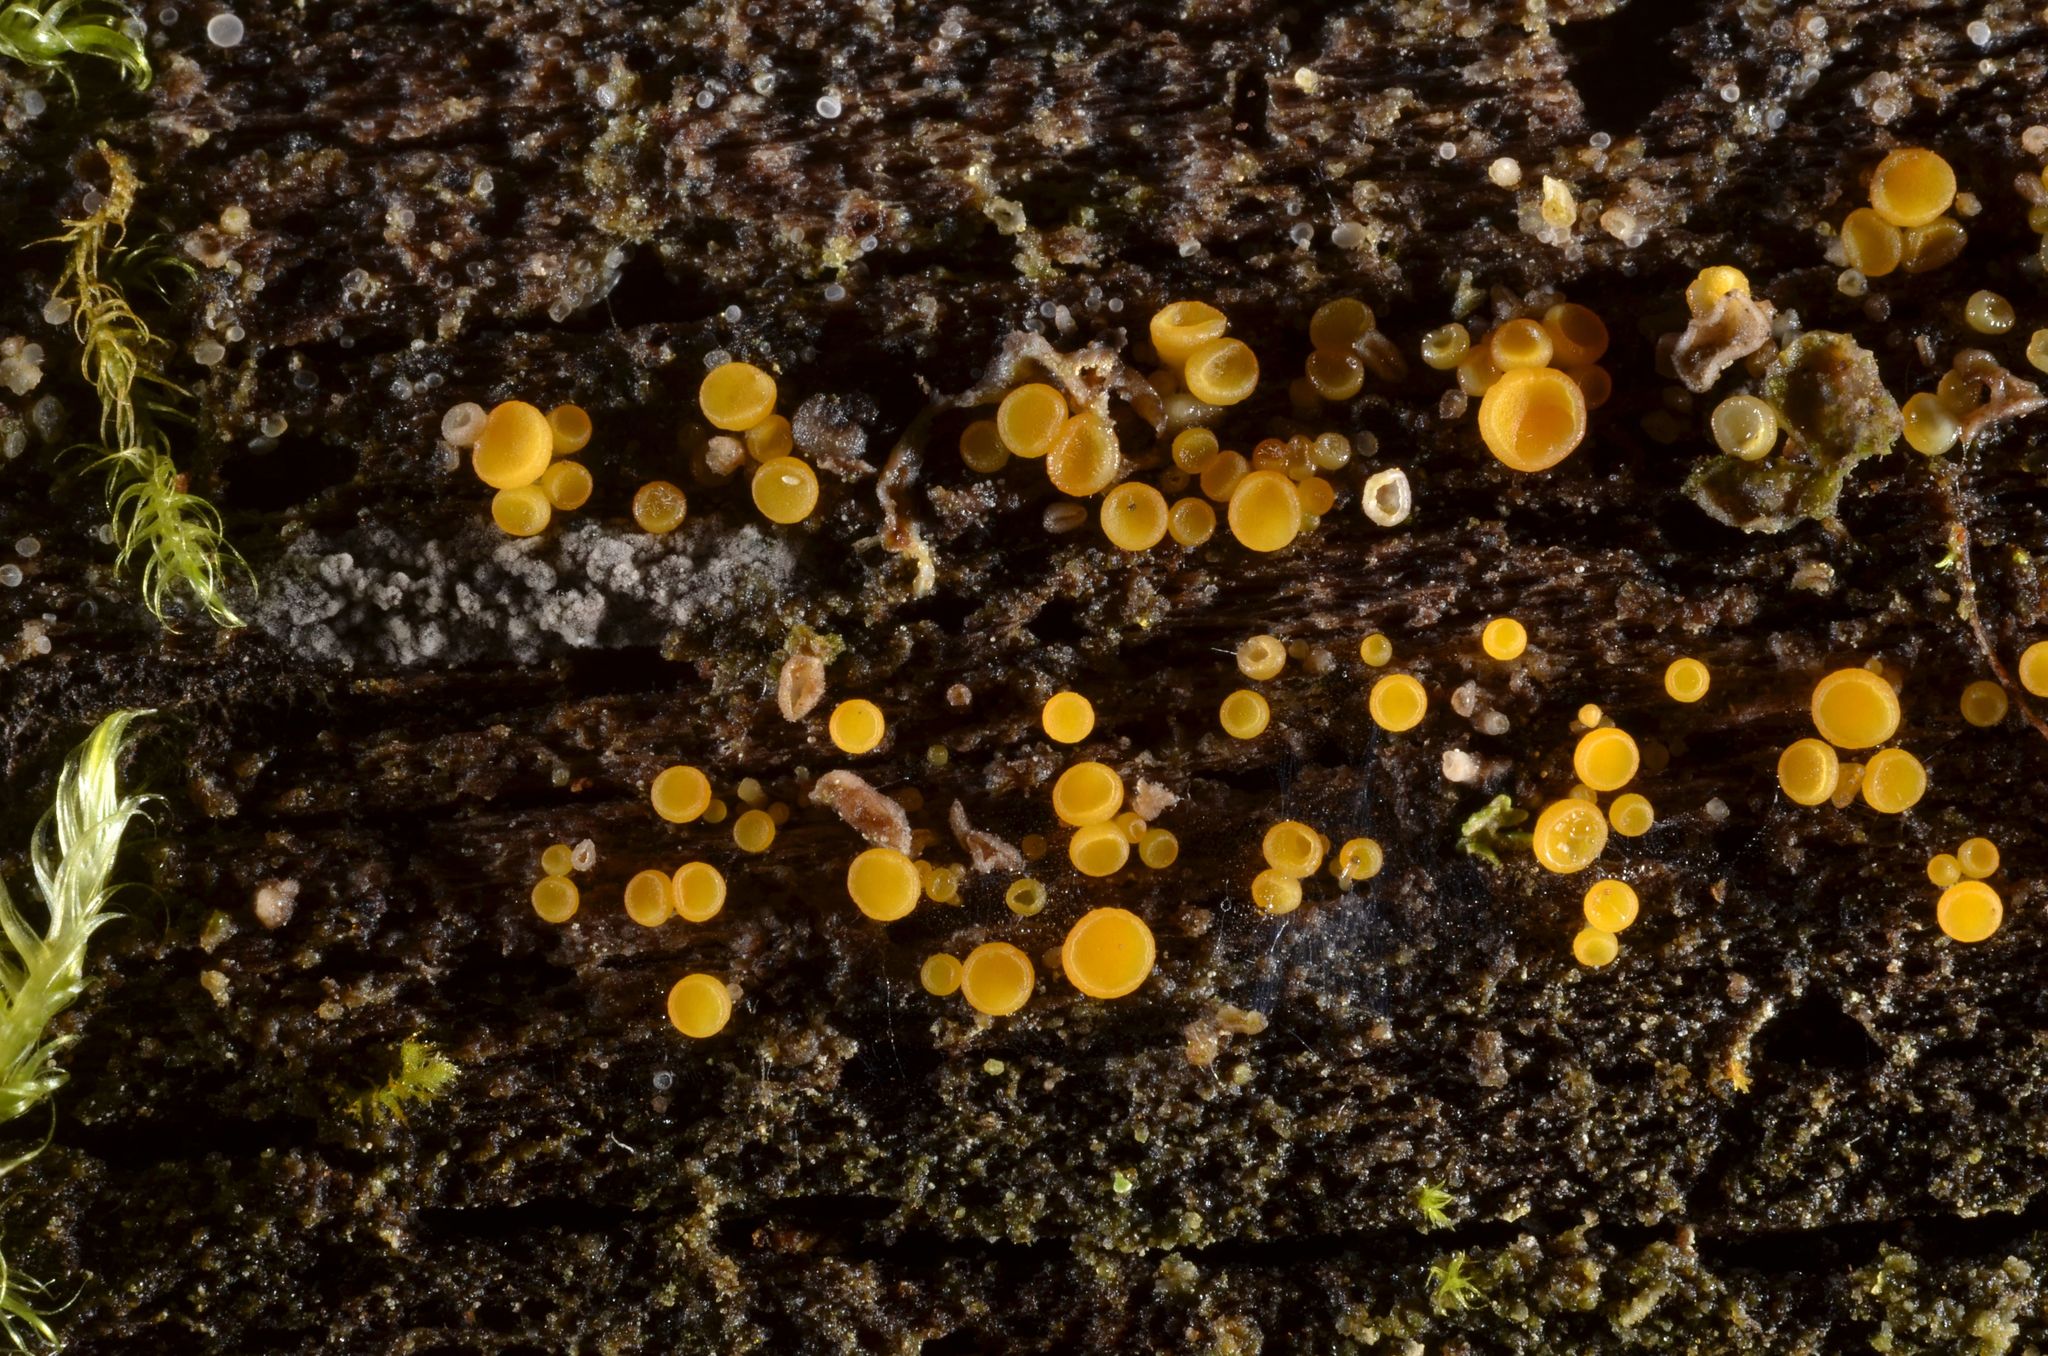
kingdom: Fungi
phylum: Ascomycota
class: Leotiomycetes
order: Helotiales
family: Pezizellaceae
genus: Calycina
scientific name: Calycina citrina
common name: Yellow fairy cups
